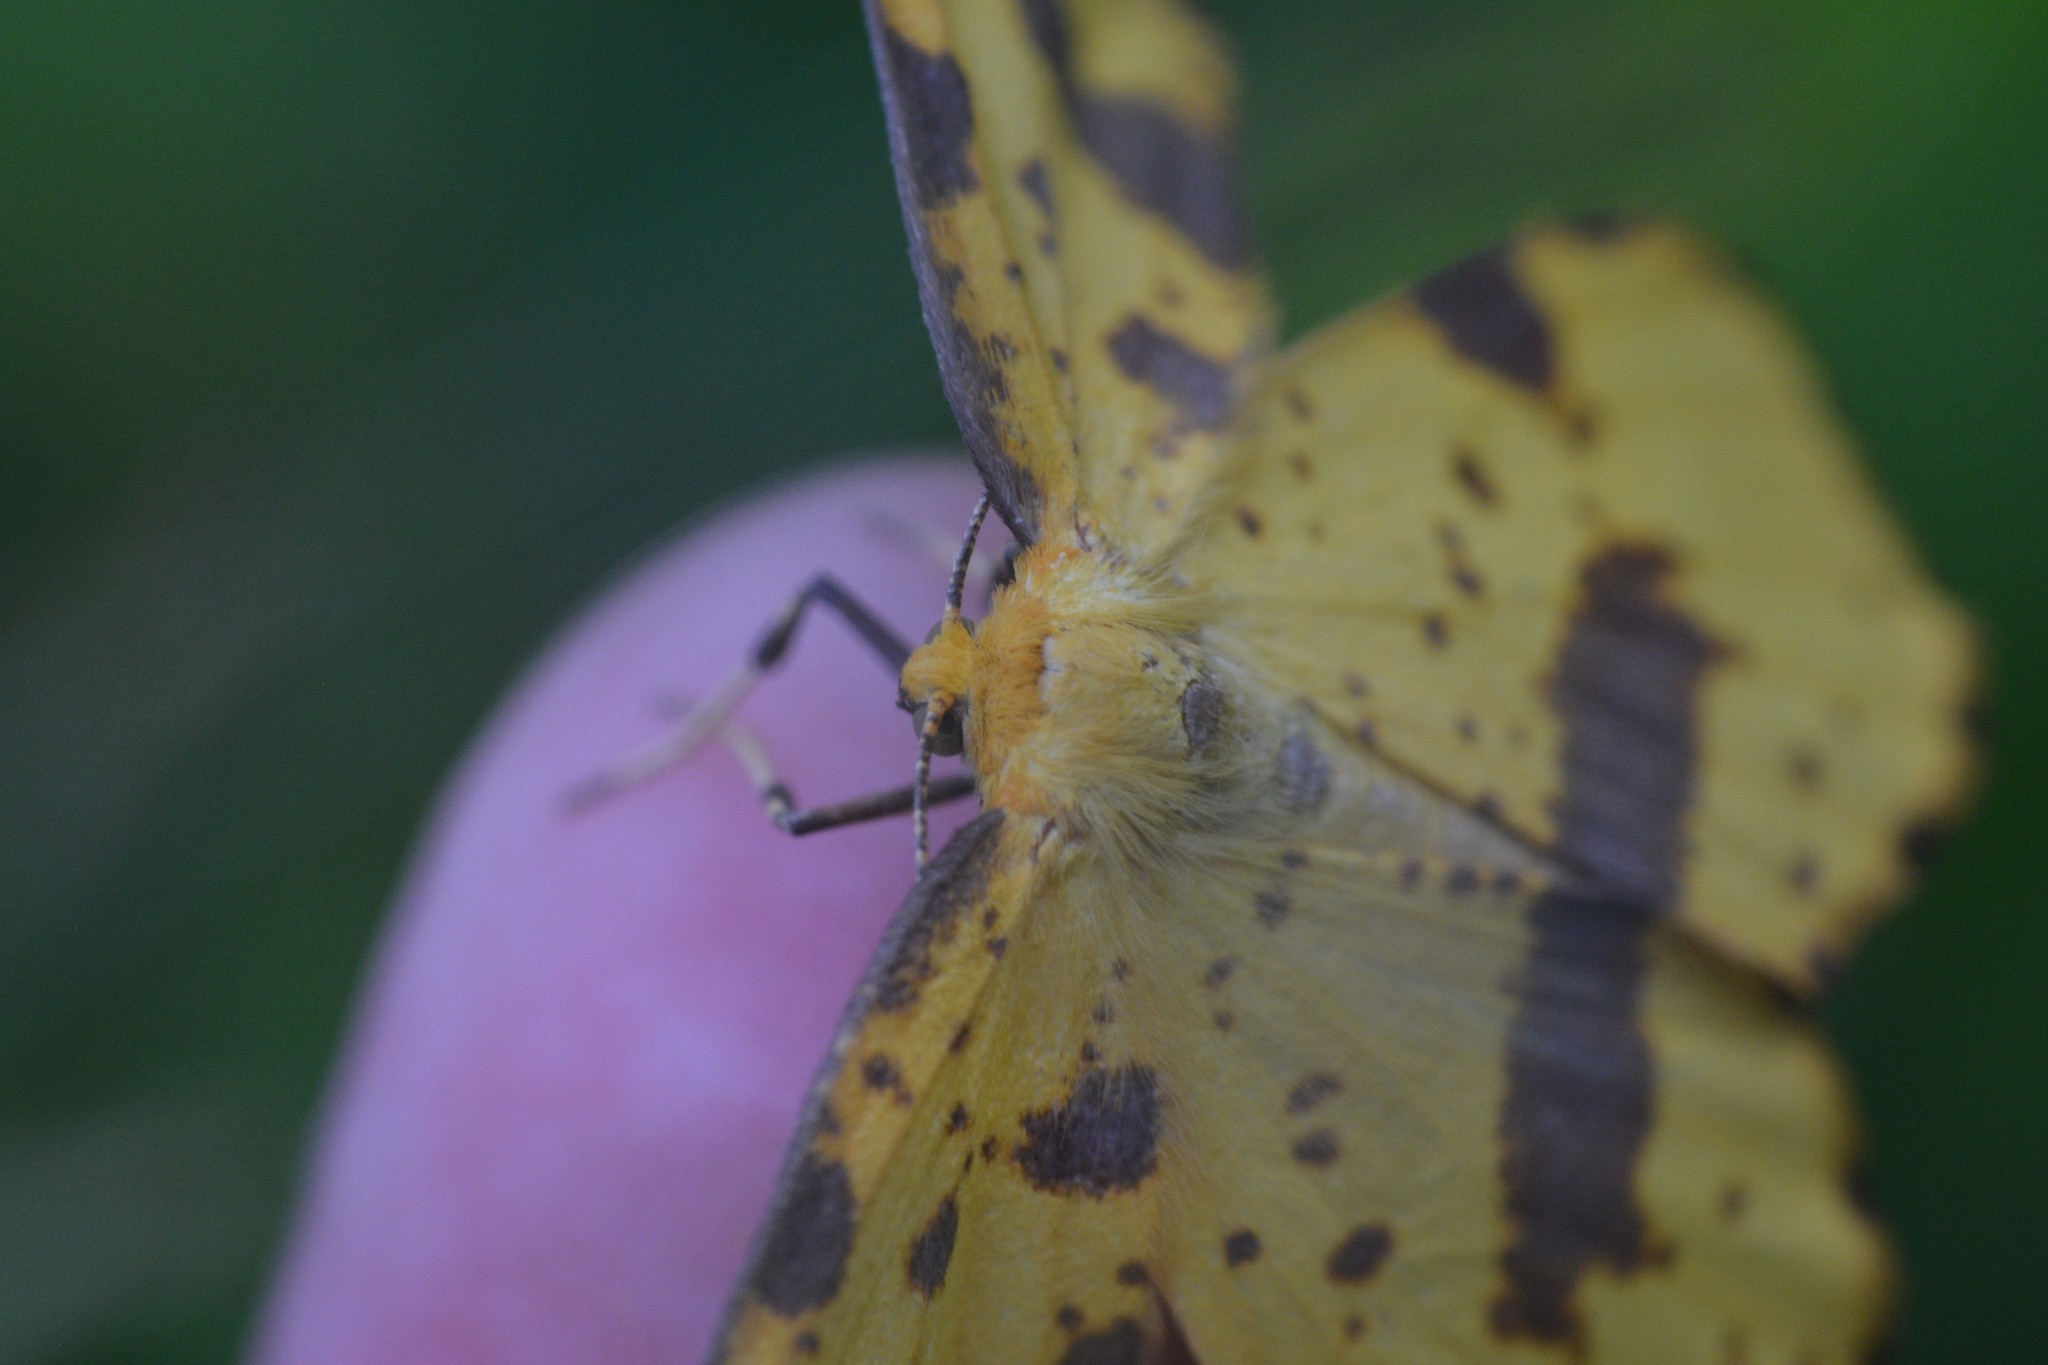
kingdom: Animalia
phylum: Arthropoda
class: Insecta
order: Lepidoptera
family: Geometridae
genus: Xanthotype
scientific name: Xanthotype
